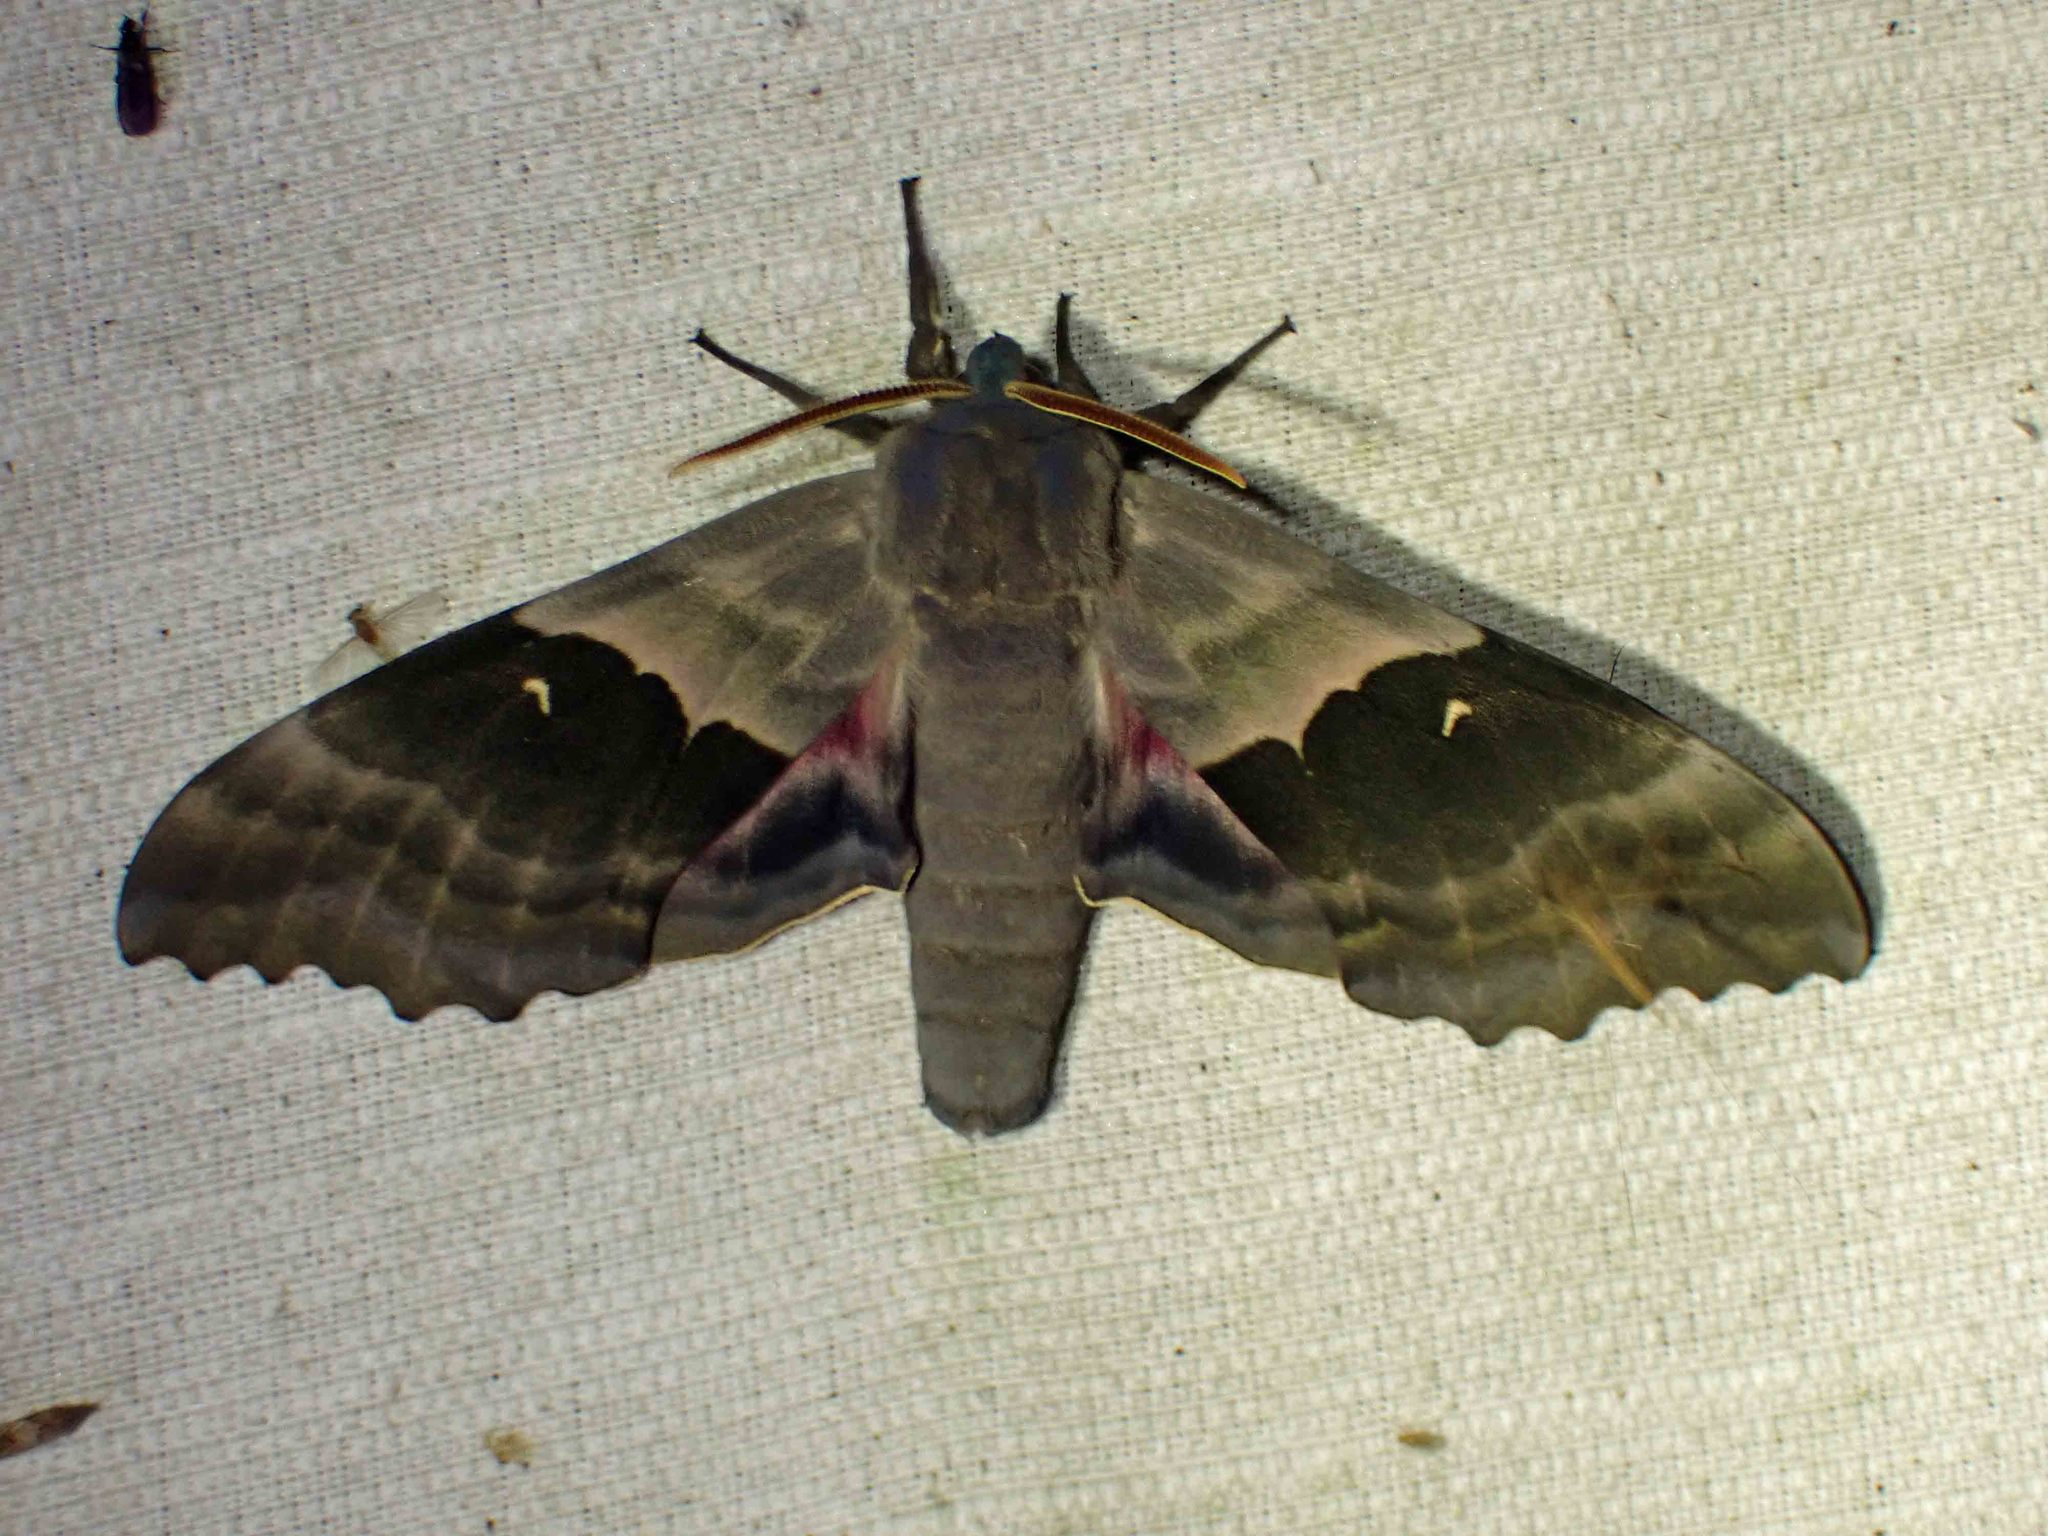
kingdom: Animalia
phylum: Arthropoda
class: Insecta
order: Lepidoptera
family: Sphingidae
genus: Pachysphinx
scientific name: Pachysphinx modesta
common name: Big poplar sphinx
